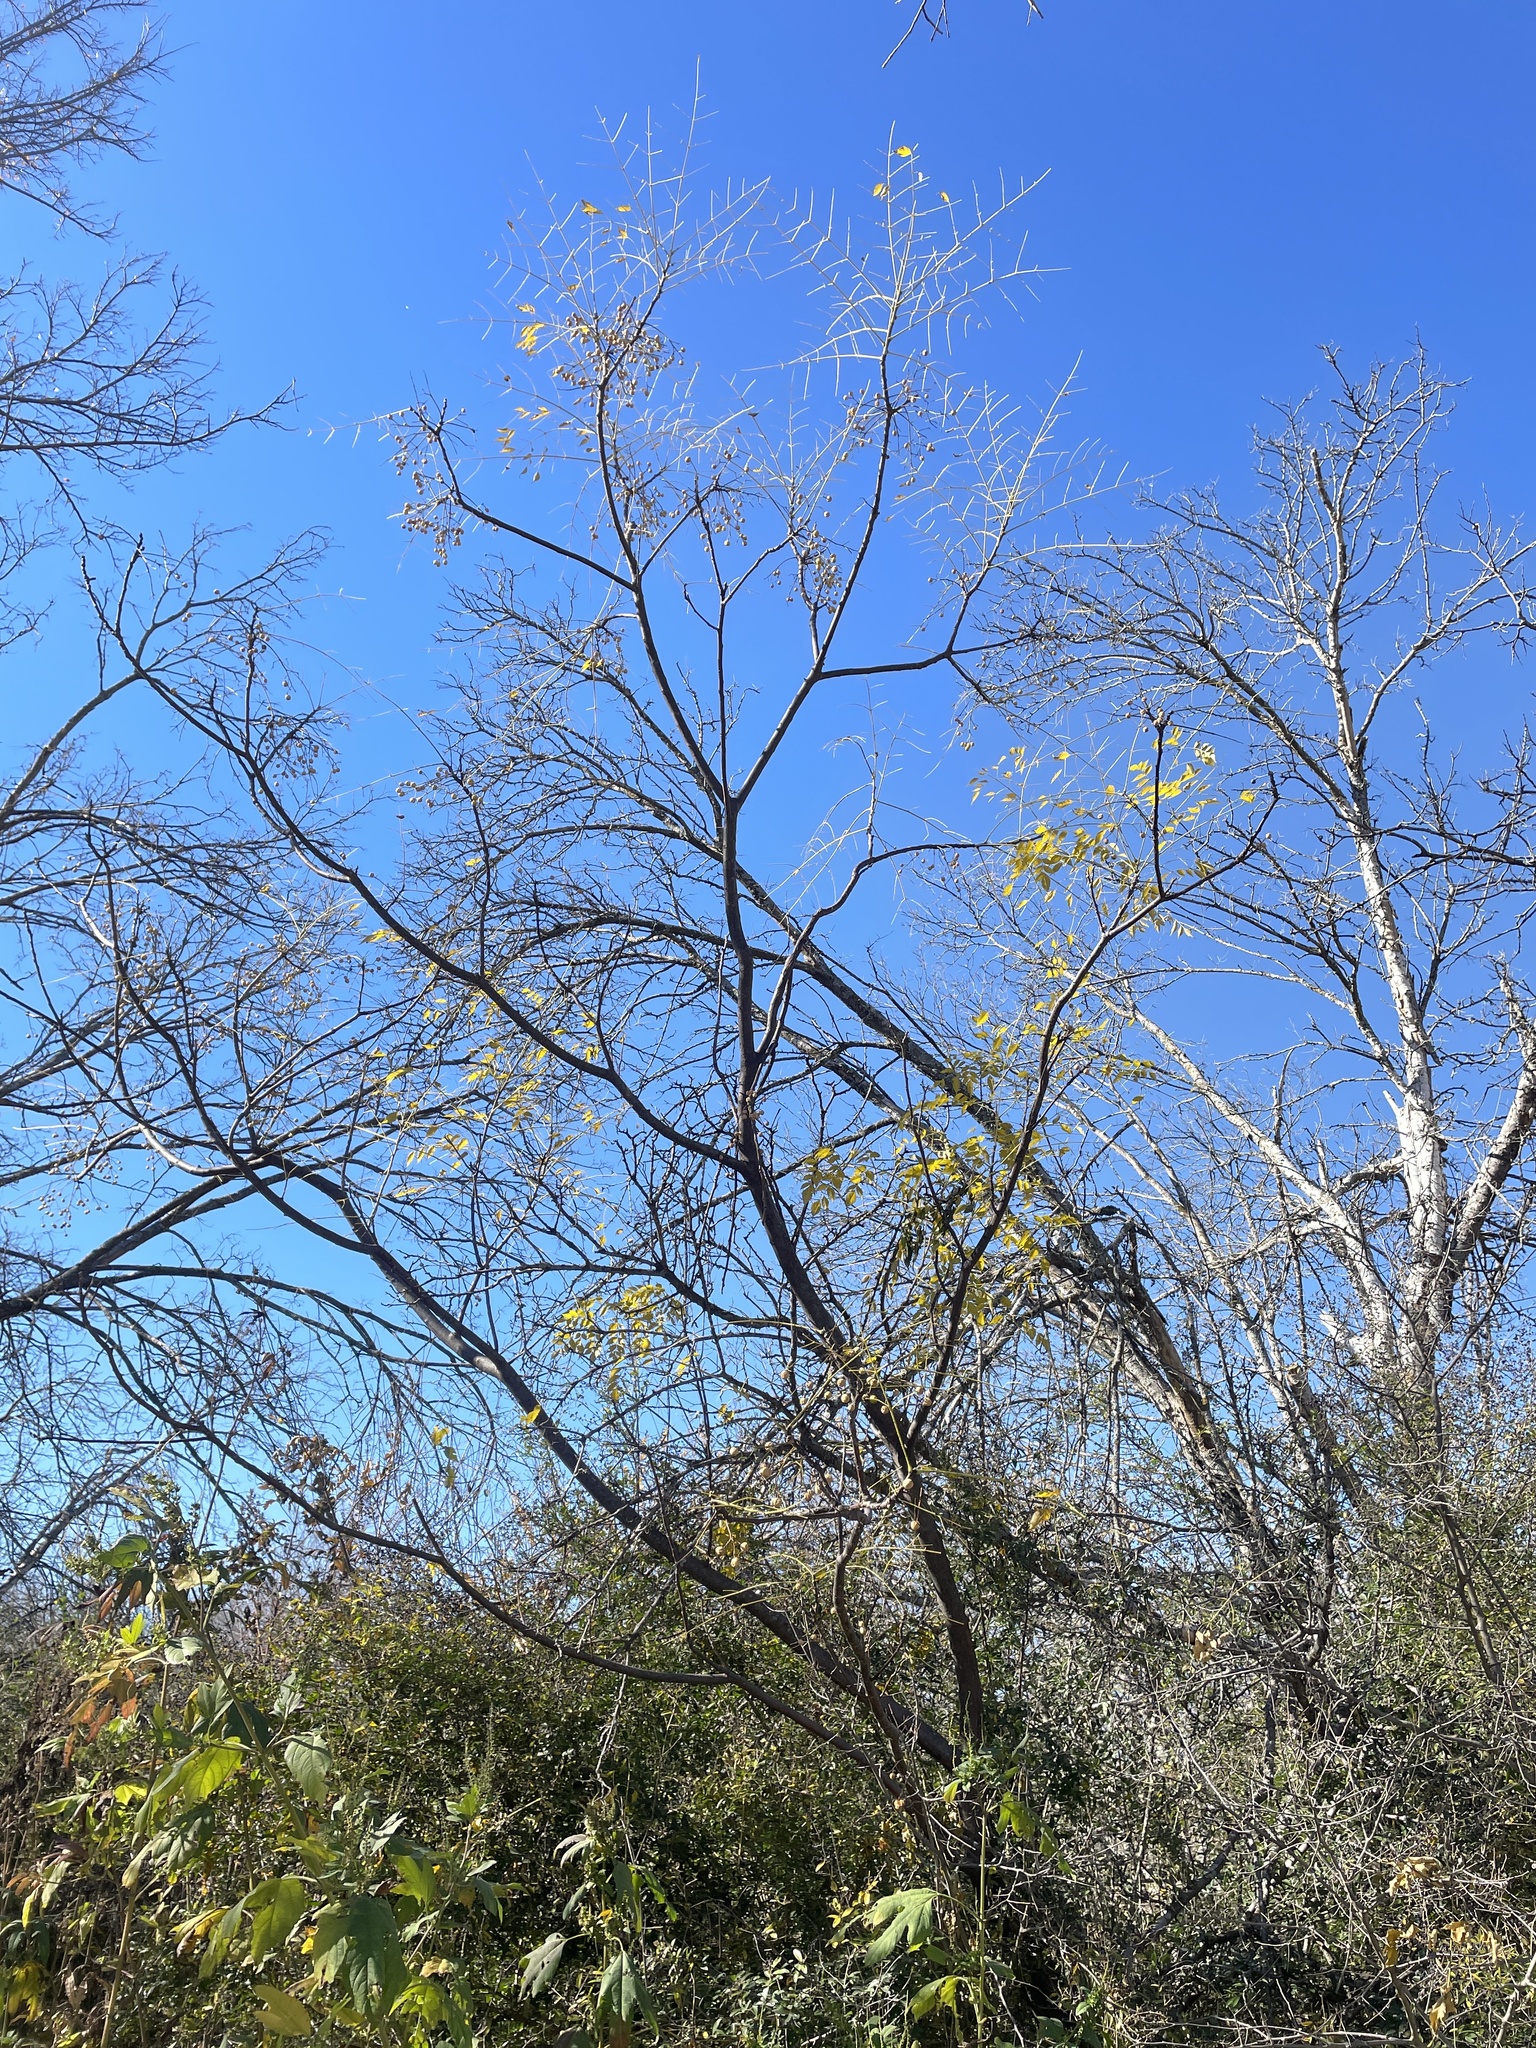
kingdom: Plantae
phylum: Tracheophyta
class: Magnoliopsida
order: Sapindales
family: Meliaceae
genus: Melia
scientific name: Melia azedarach
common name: Chinaberrytree
